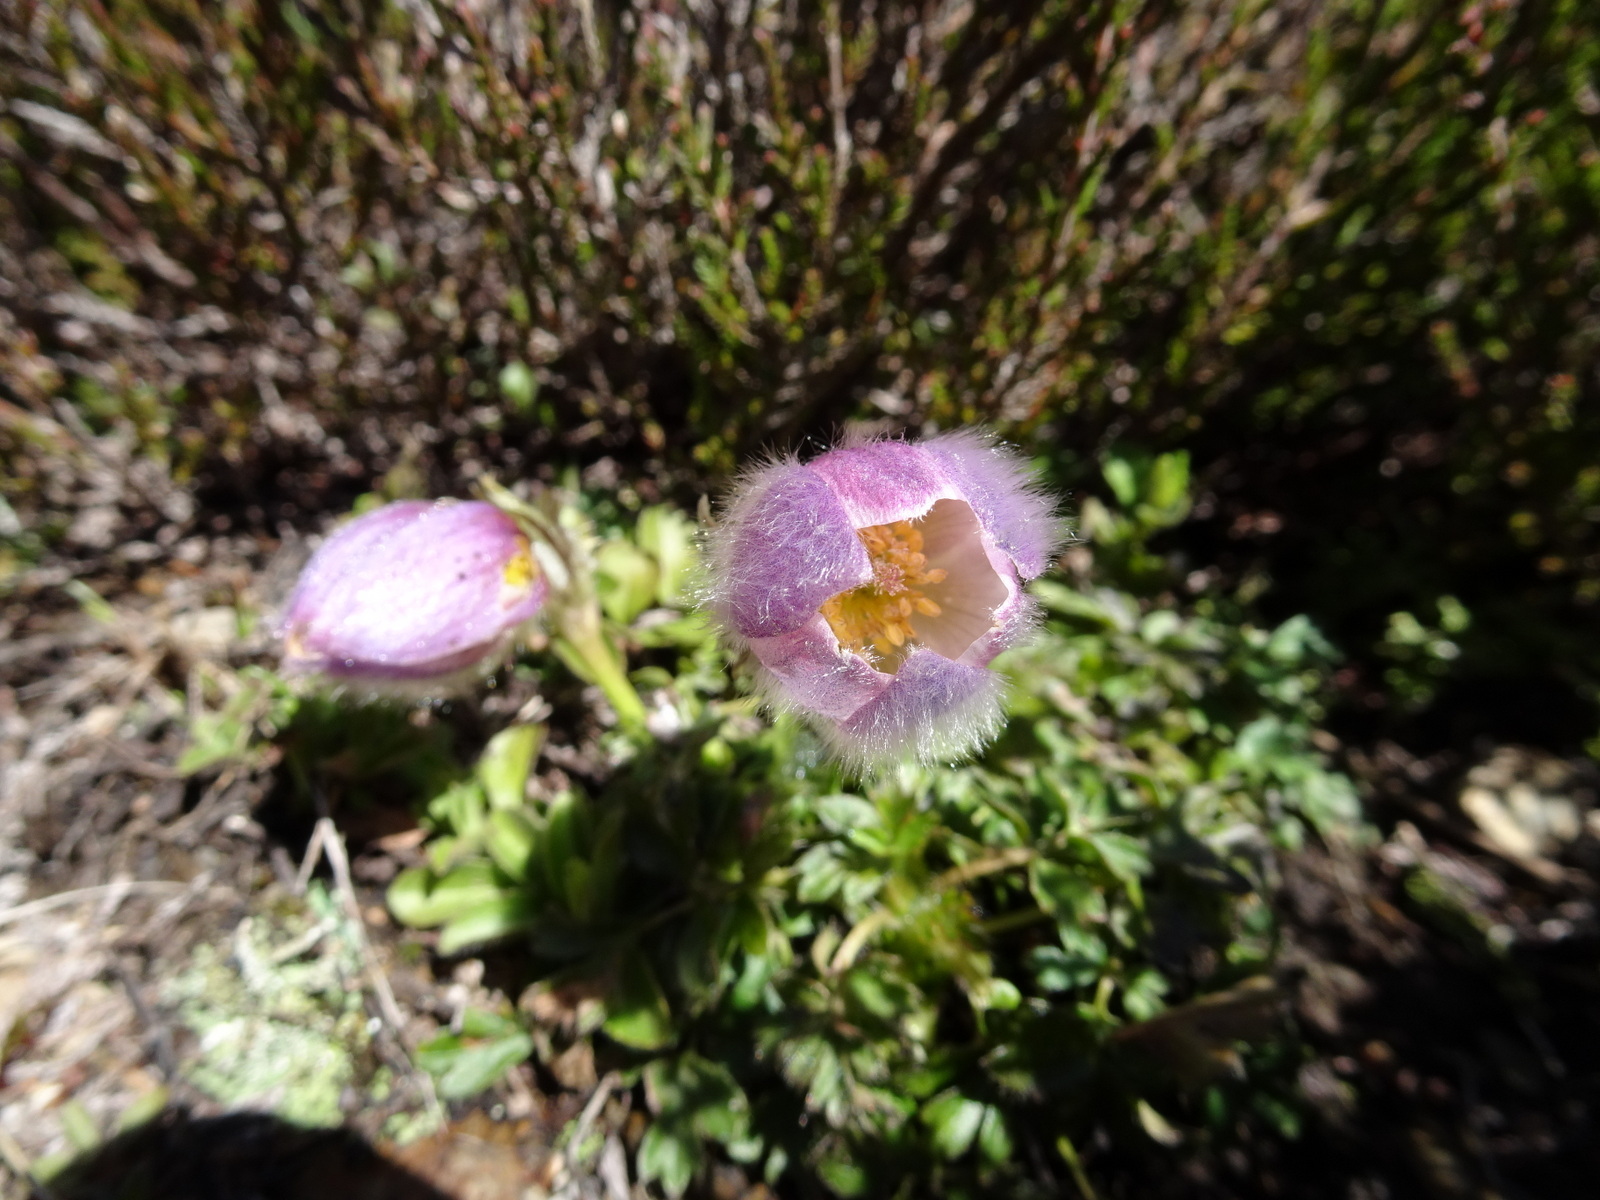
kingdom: Plantae
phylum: Tracheophyta
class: Magnoliopsida
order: Ranunculales
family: Ranunculaceae
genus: Pulsatilla
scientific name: Pulsatilla vernalis
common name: Spring pasque flower
